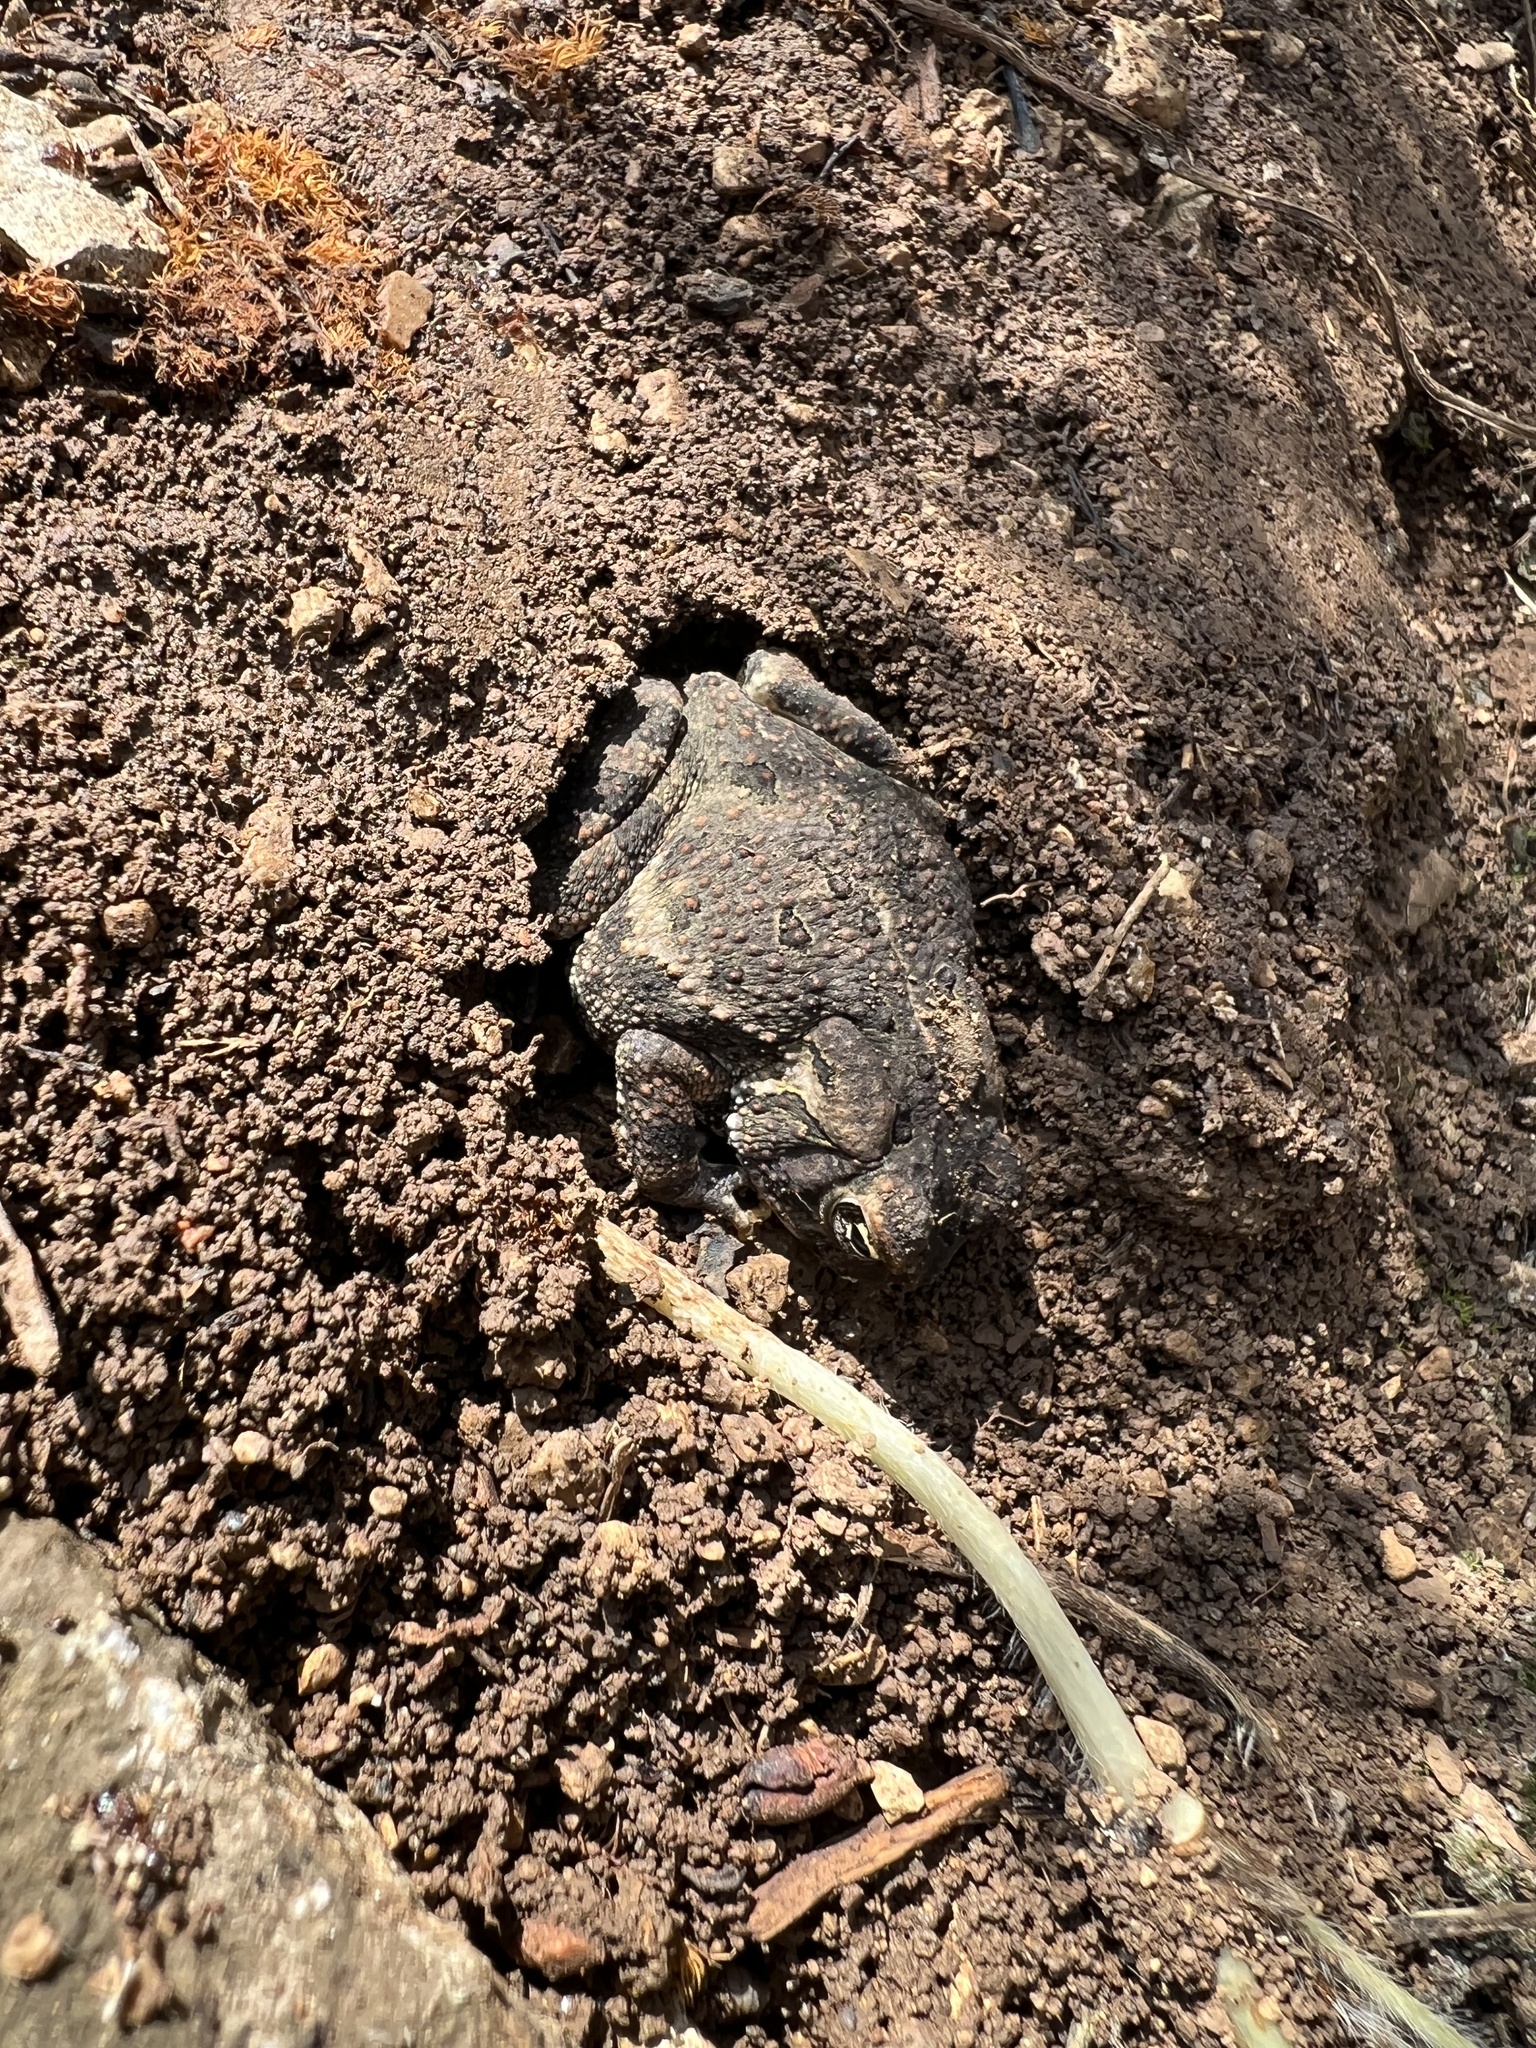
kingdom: Animalia
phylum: Chordata
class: Amphibia
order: Anura
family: Bufonidae
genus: Anaxyrus
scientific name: Anaxyrus fowleri
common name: Fowler's toad
